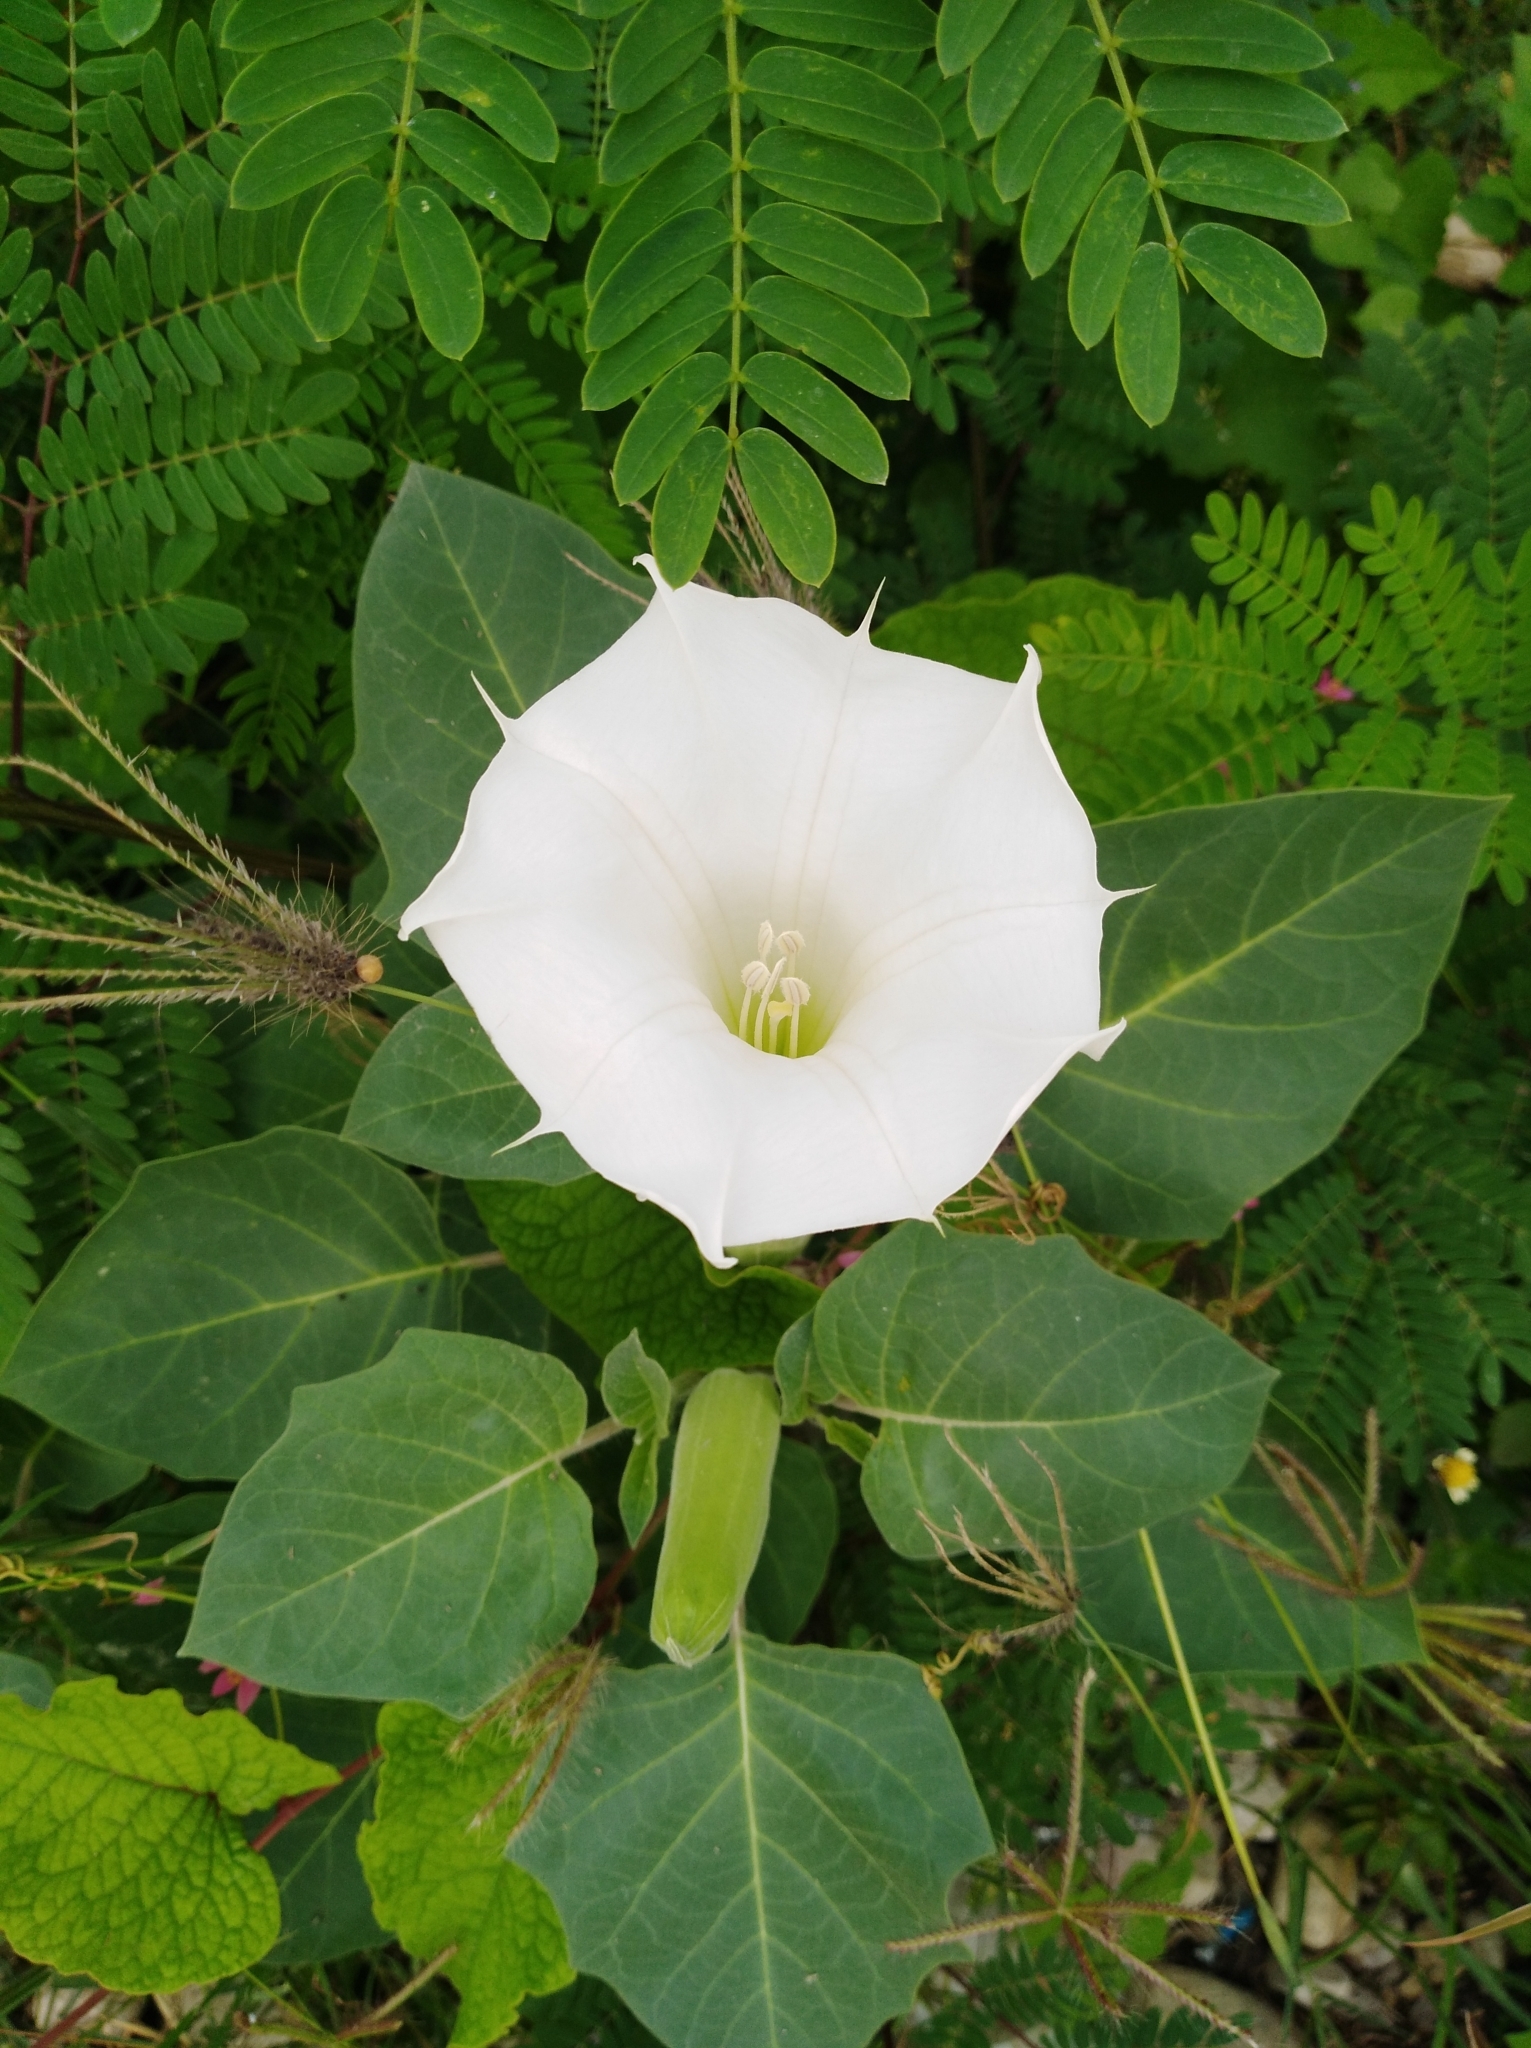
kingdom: Plantae
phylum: Tracheophyta
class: Magnoliopsida
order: Solanales
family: Solanaceae
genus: Datura
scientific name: Datura innoxia
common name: Downy thorn-apple
